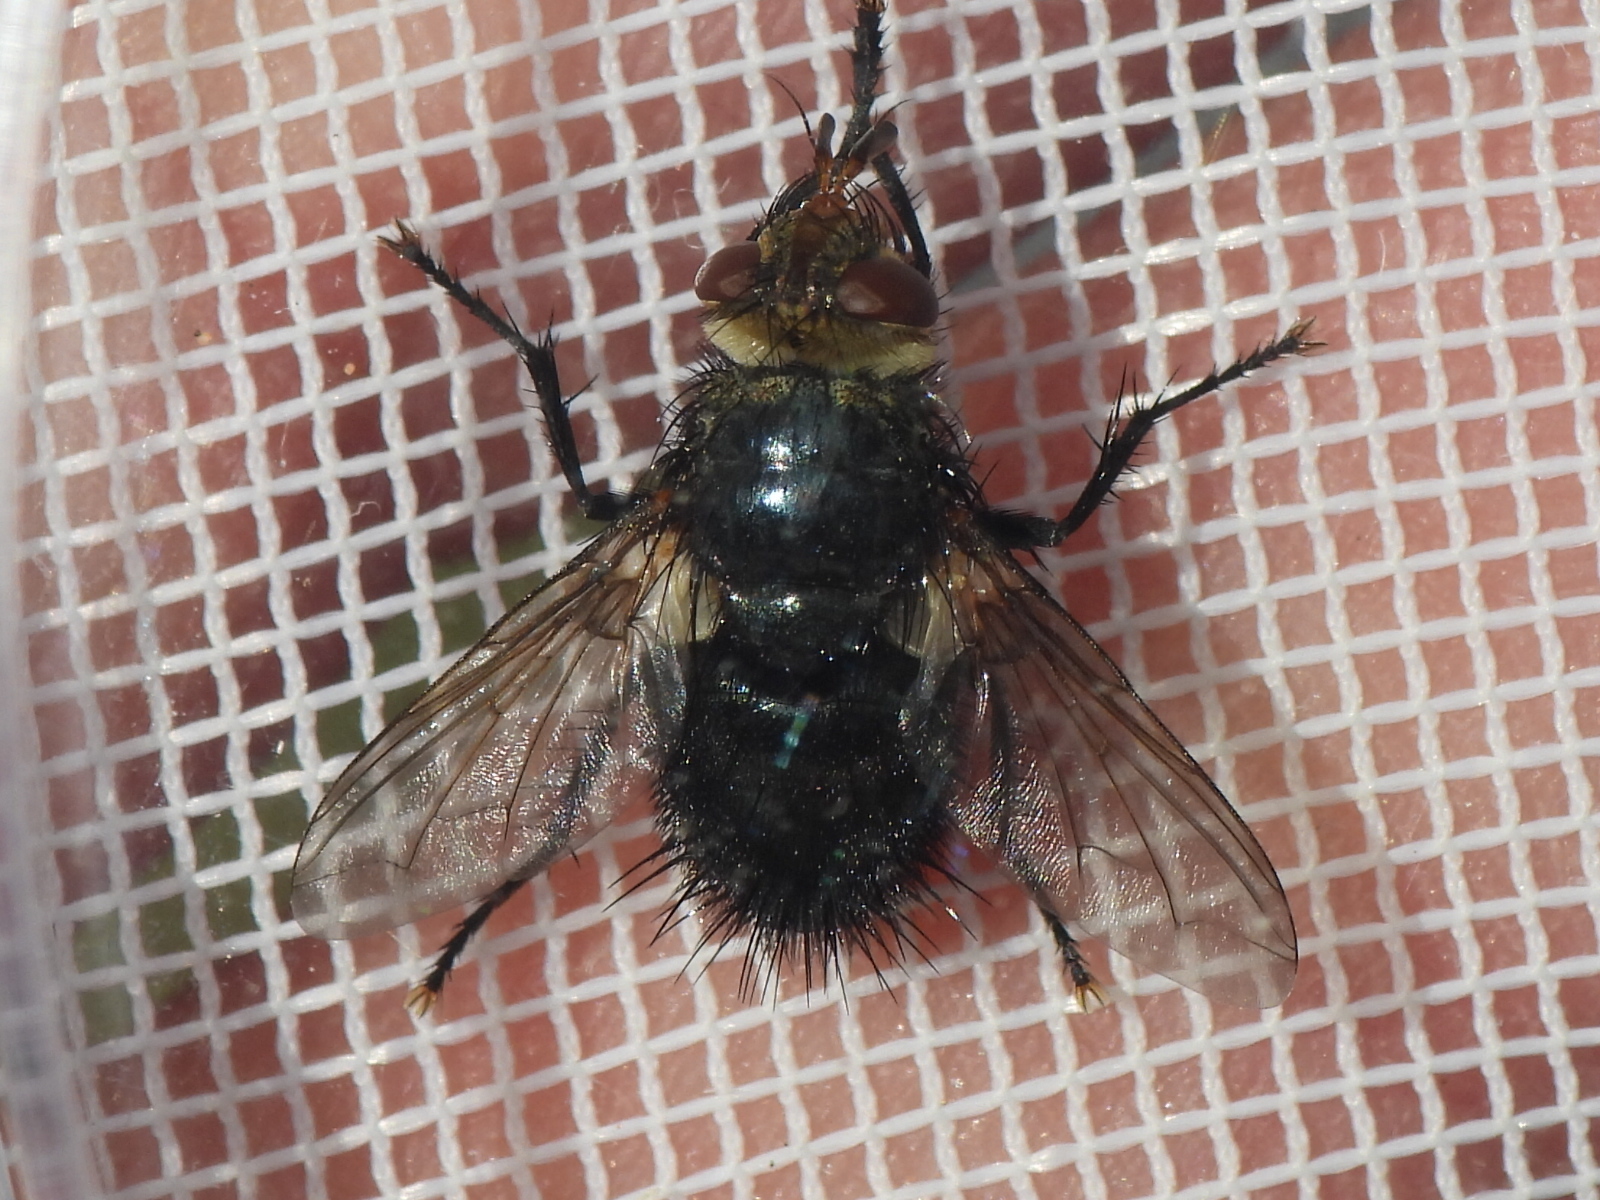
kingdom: Animalia
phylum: Arthropoda
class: Insecta
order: Diptera
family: Tachinidae
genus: Archytas
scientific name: Archytas apicifer
